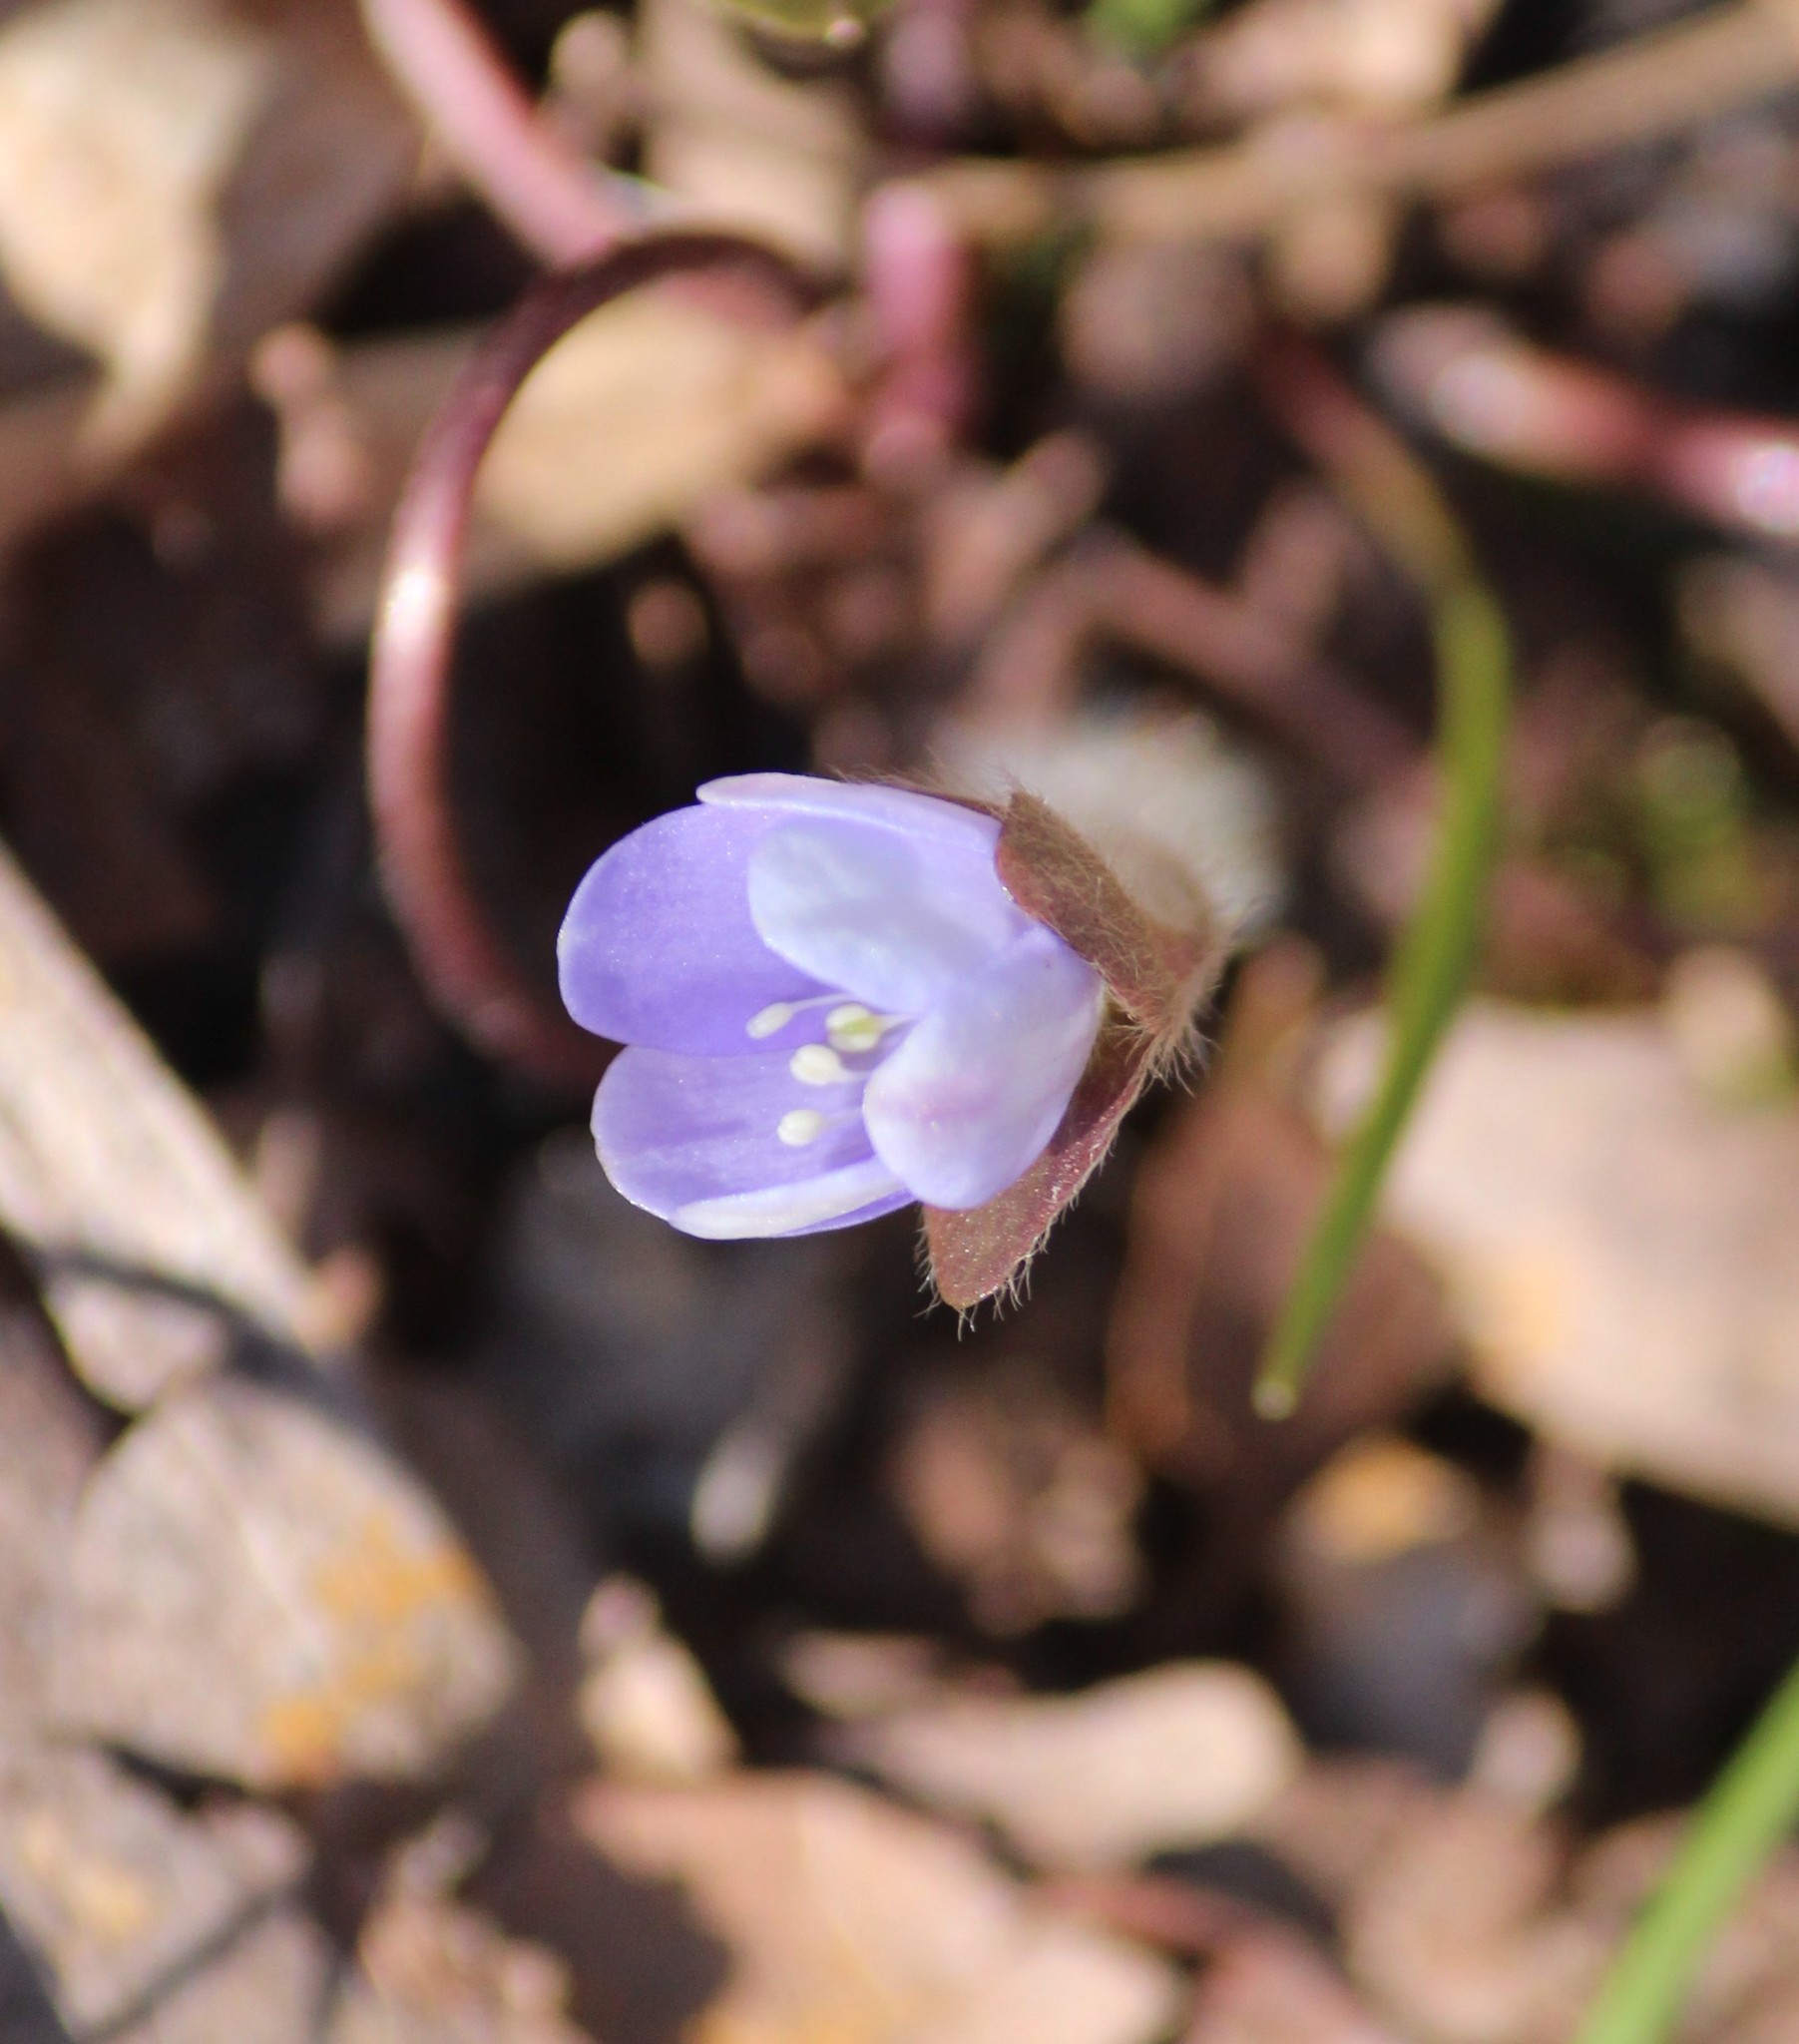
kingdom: Plantae
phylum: Tracheophyta
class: Magnoliopsida
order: Ranunculales
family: Ranunculaceae
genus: Hepatica
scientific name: Hepatica americana
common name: American hepatica
